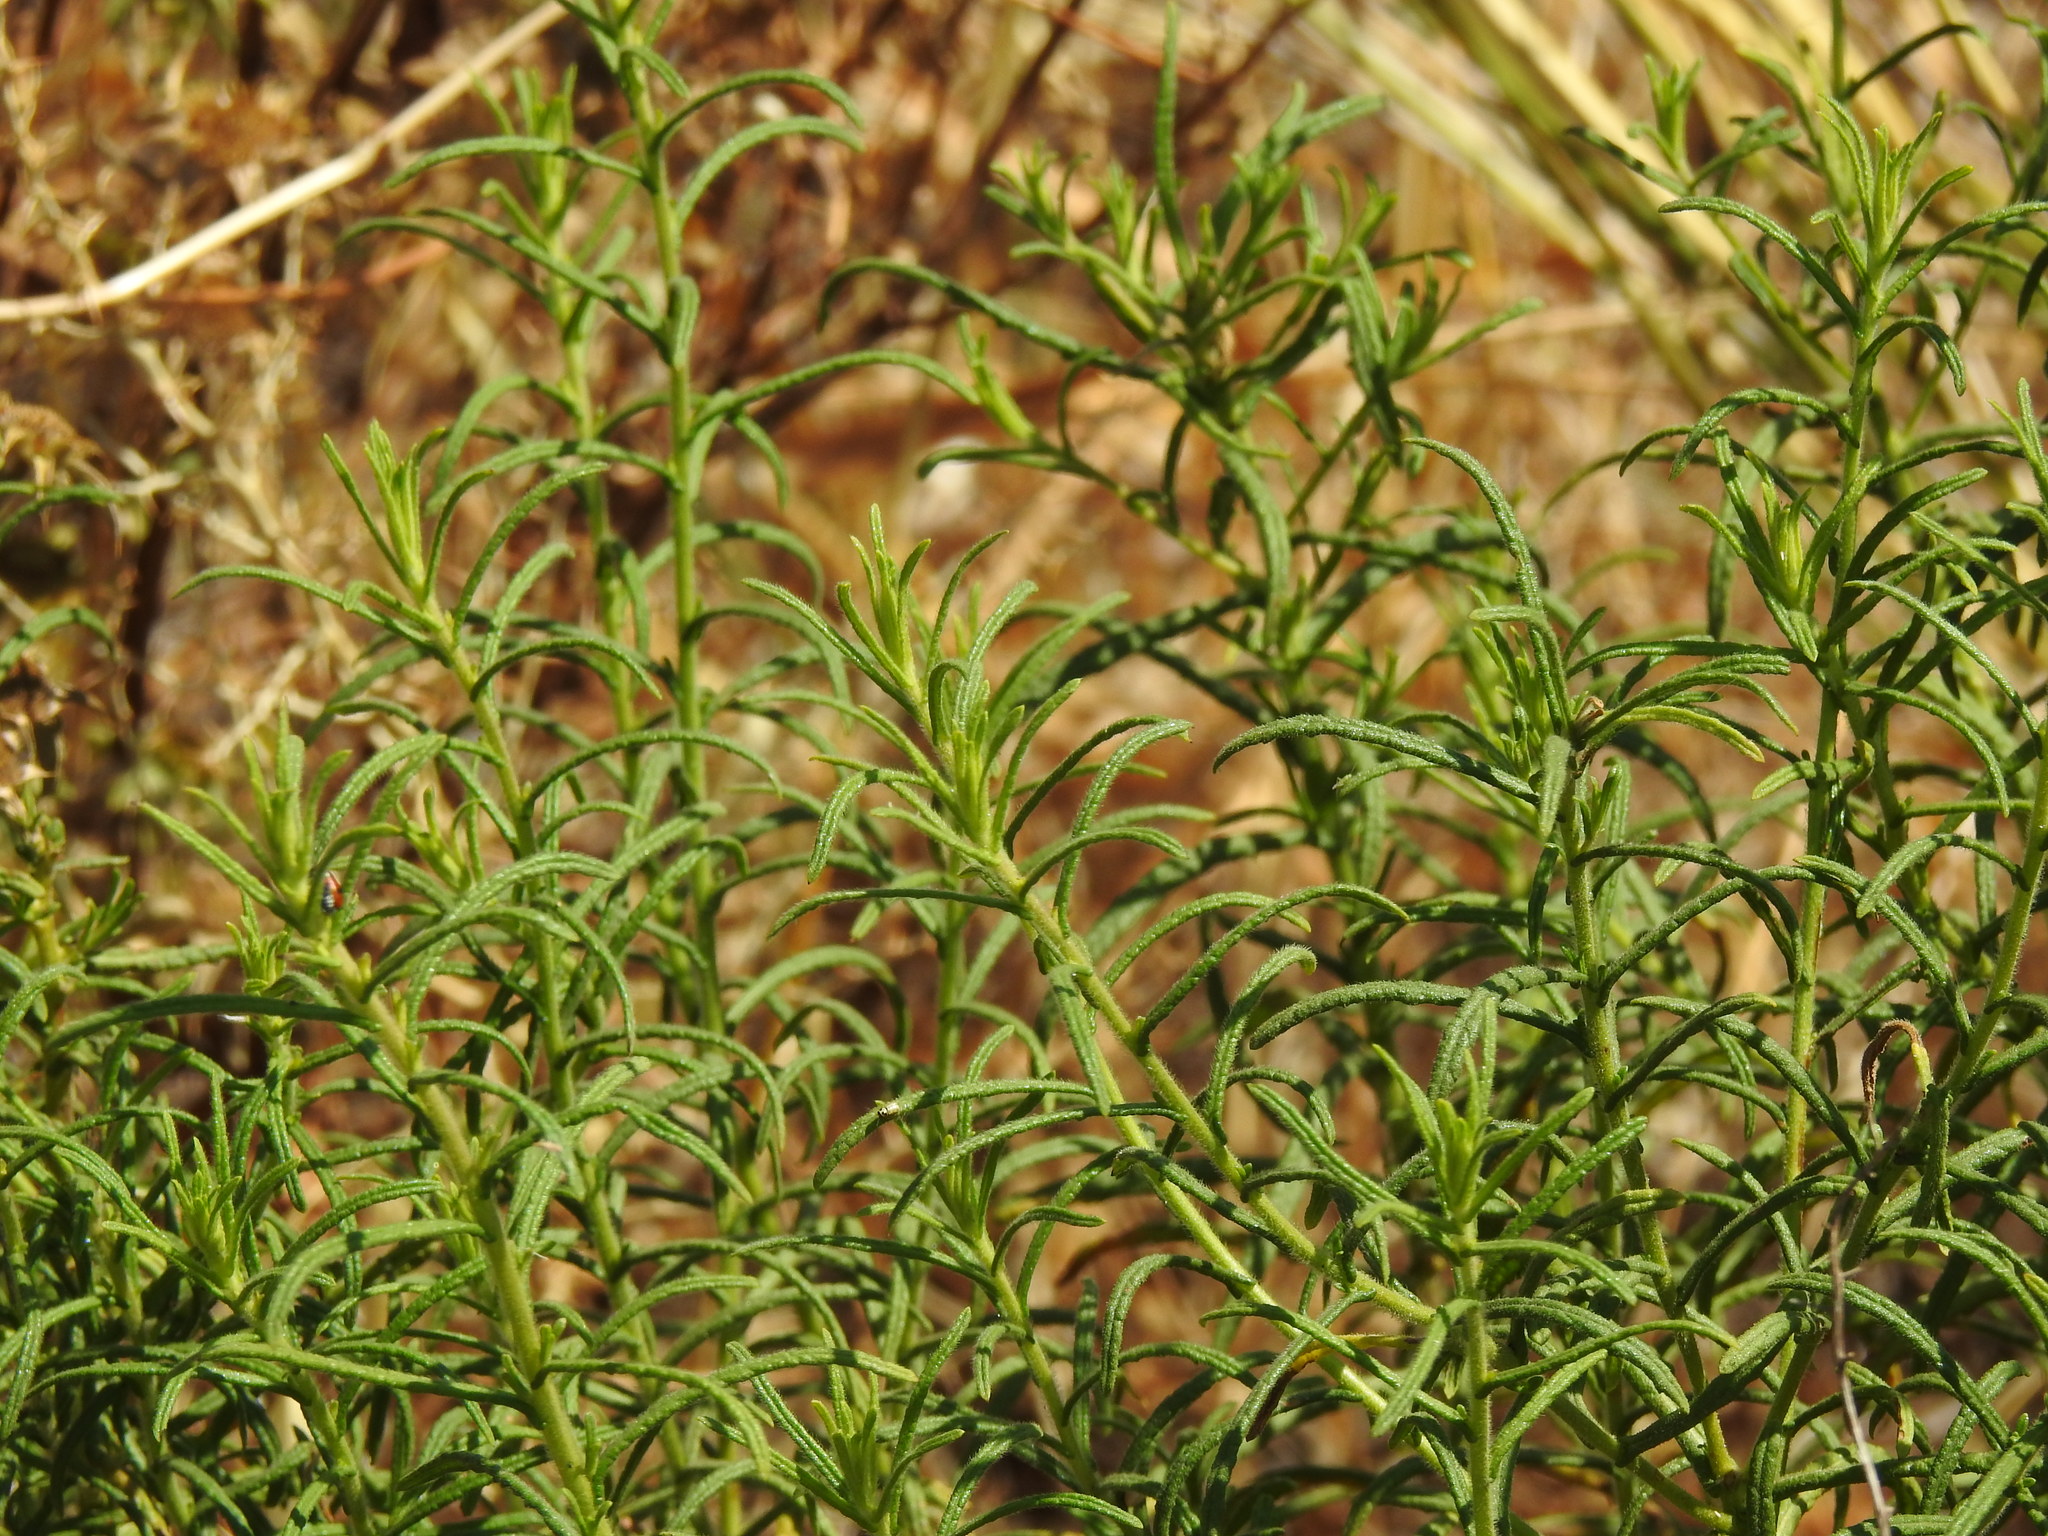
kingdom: Plantae
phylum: Tracheophyta
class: Magnoliopsida
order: Asterales
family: Asteraceae
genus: Dittrichia
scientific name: Dittrichia viscosa
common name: Woody fleabane
